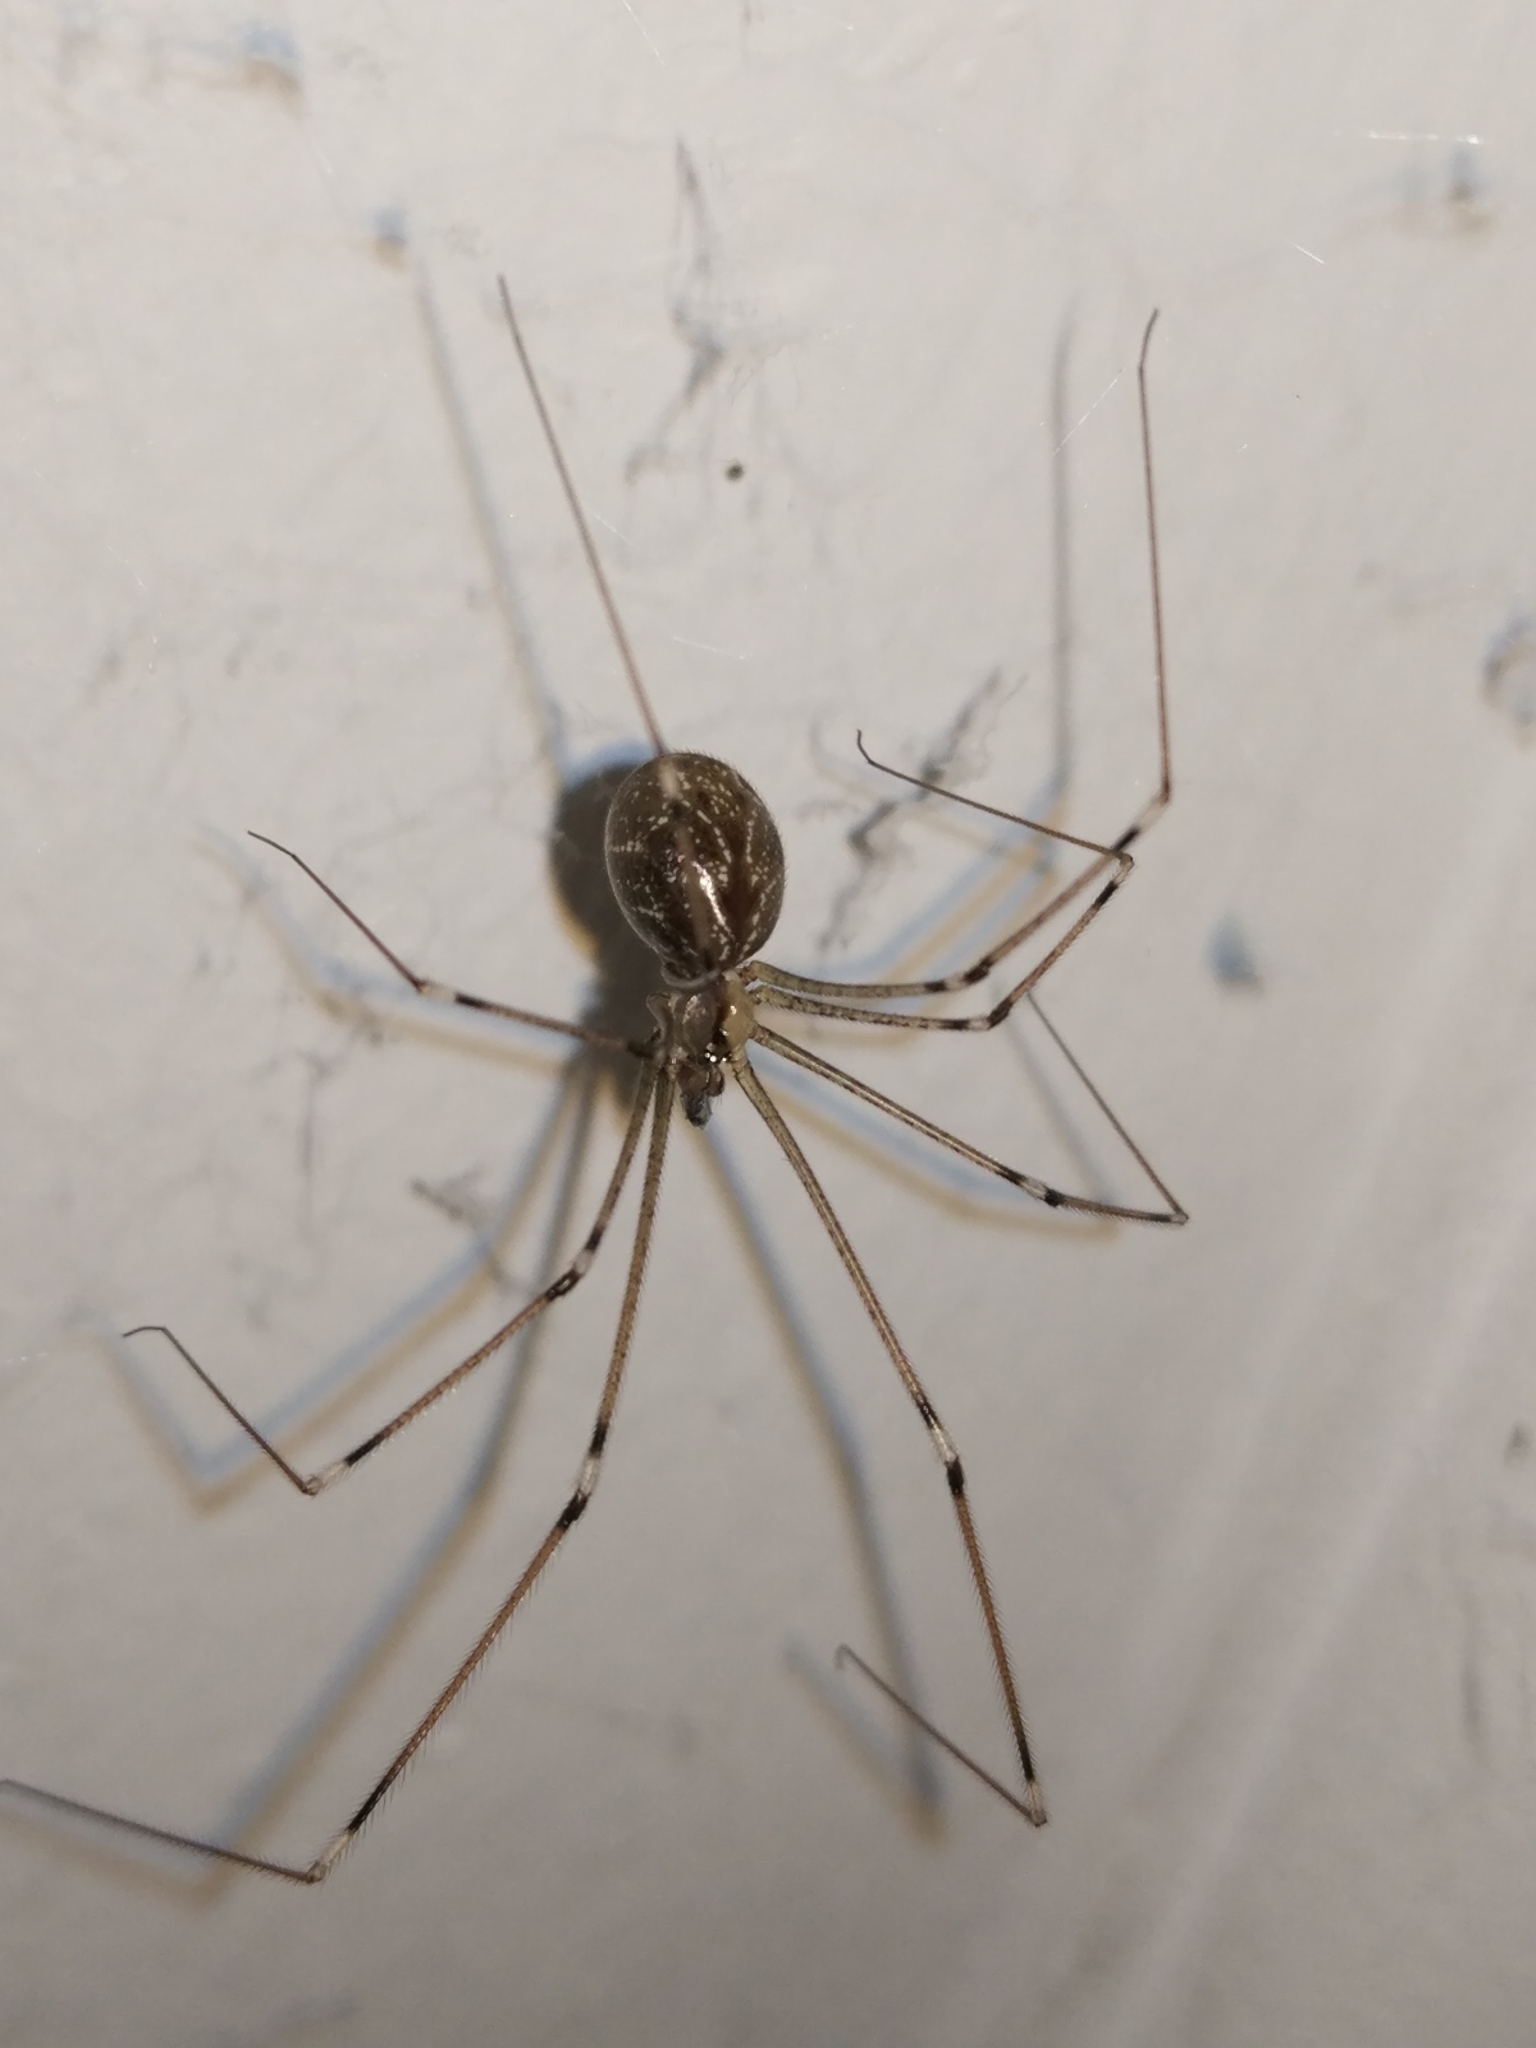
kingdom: Animalia
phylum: Arthropoda
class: Arachnida
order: Araneae
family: Pholcidae
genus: Holocnemus
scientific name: Holocnemus pluchei
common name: Marbled cellar spider
